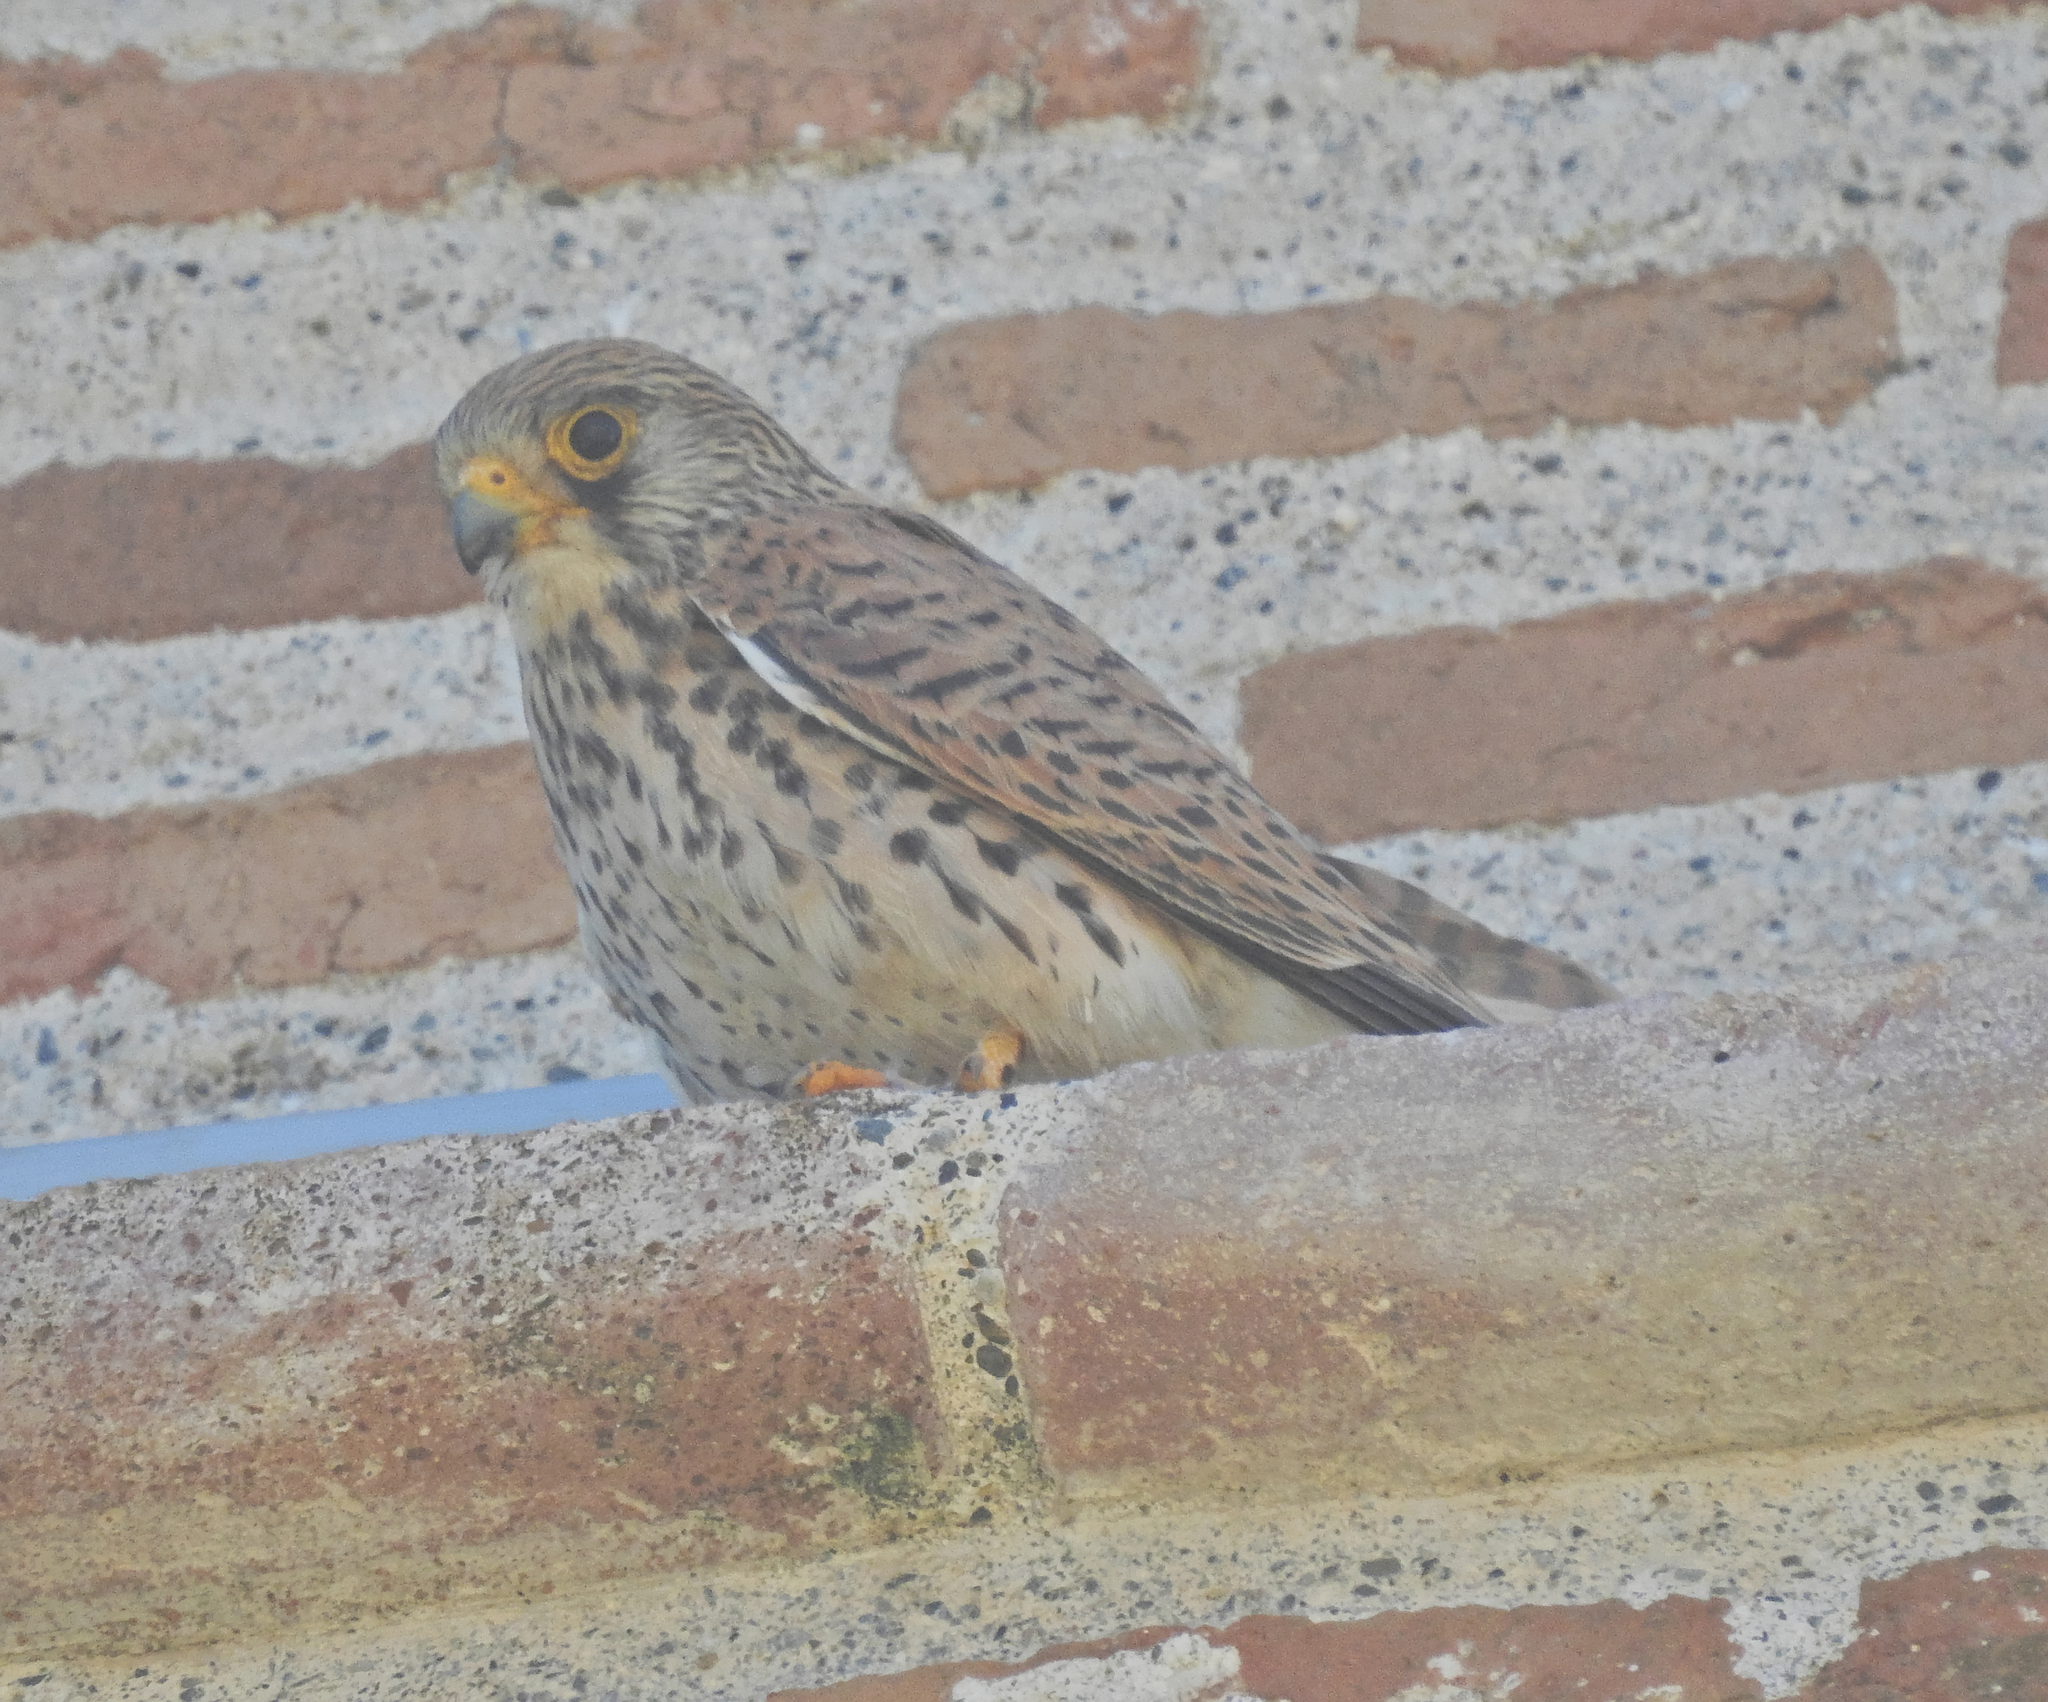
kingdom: Animalia
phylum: Chordata
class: Aves
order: Falconiformes
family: Falconidae
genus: Falco
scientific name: Falco naumanni
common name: Lesser kestrel
